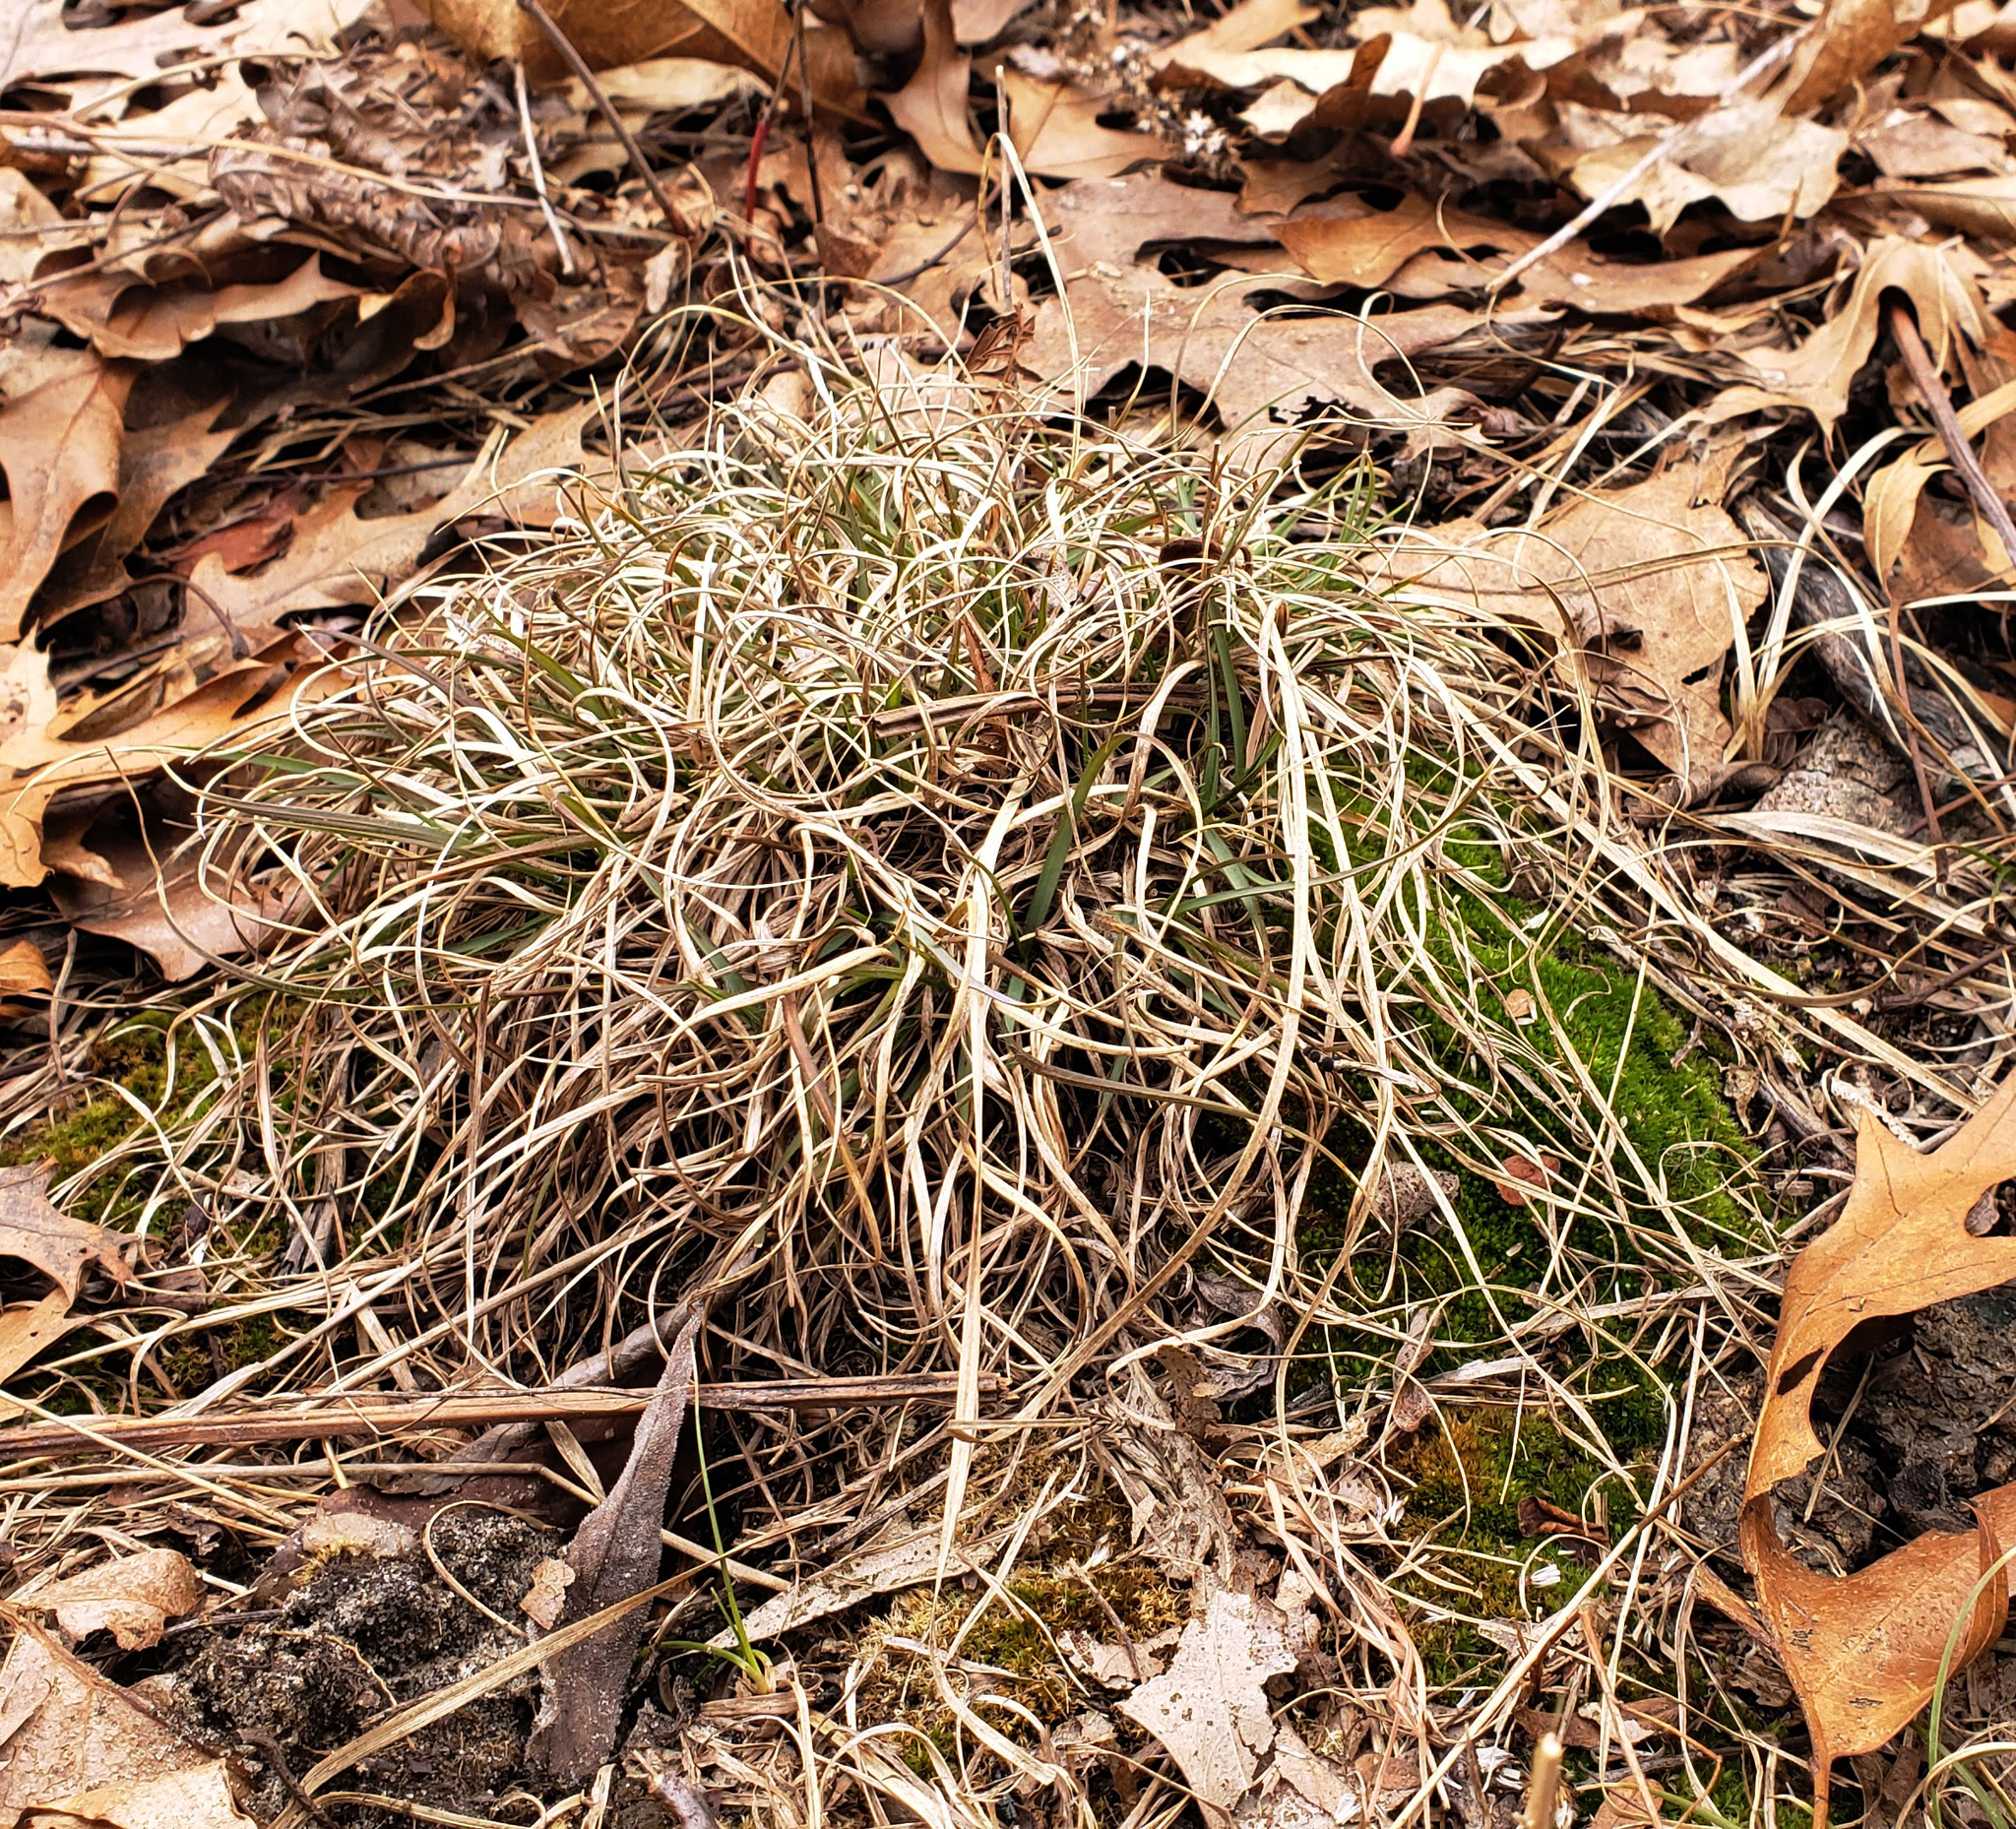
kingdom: Plantae
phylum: Tracheophyta
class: Liliopsida
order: Poales
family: Poaceae
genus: Danthonia
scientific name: Danthonia spicata
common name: Common wild oatgrass
